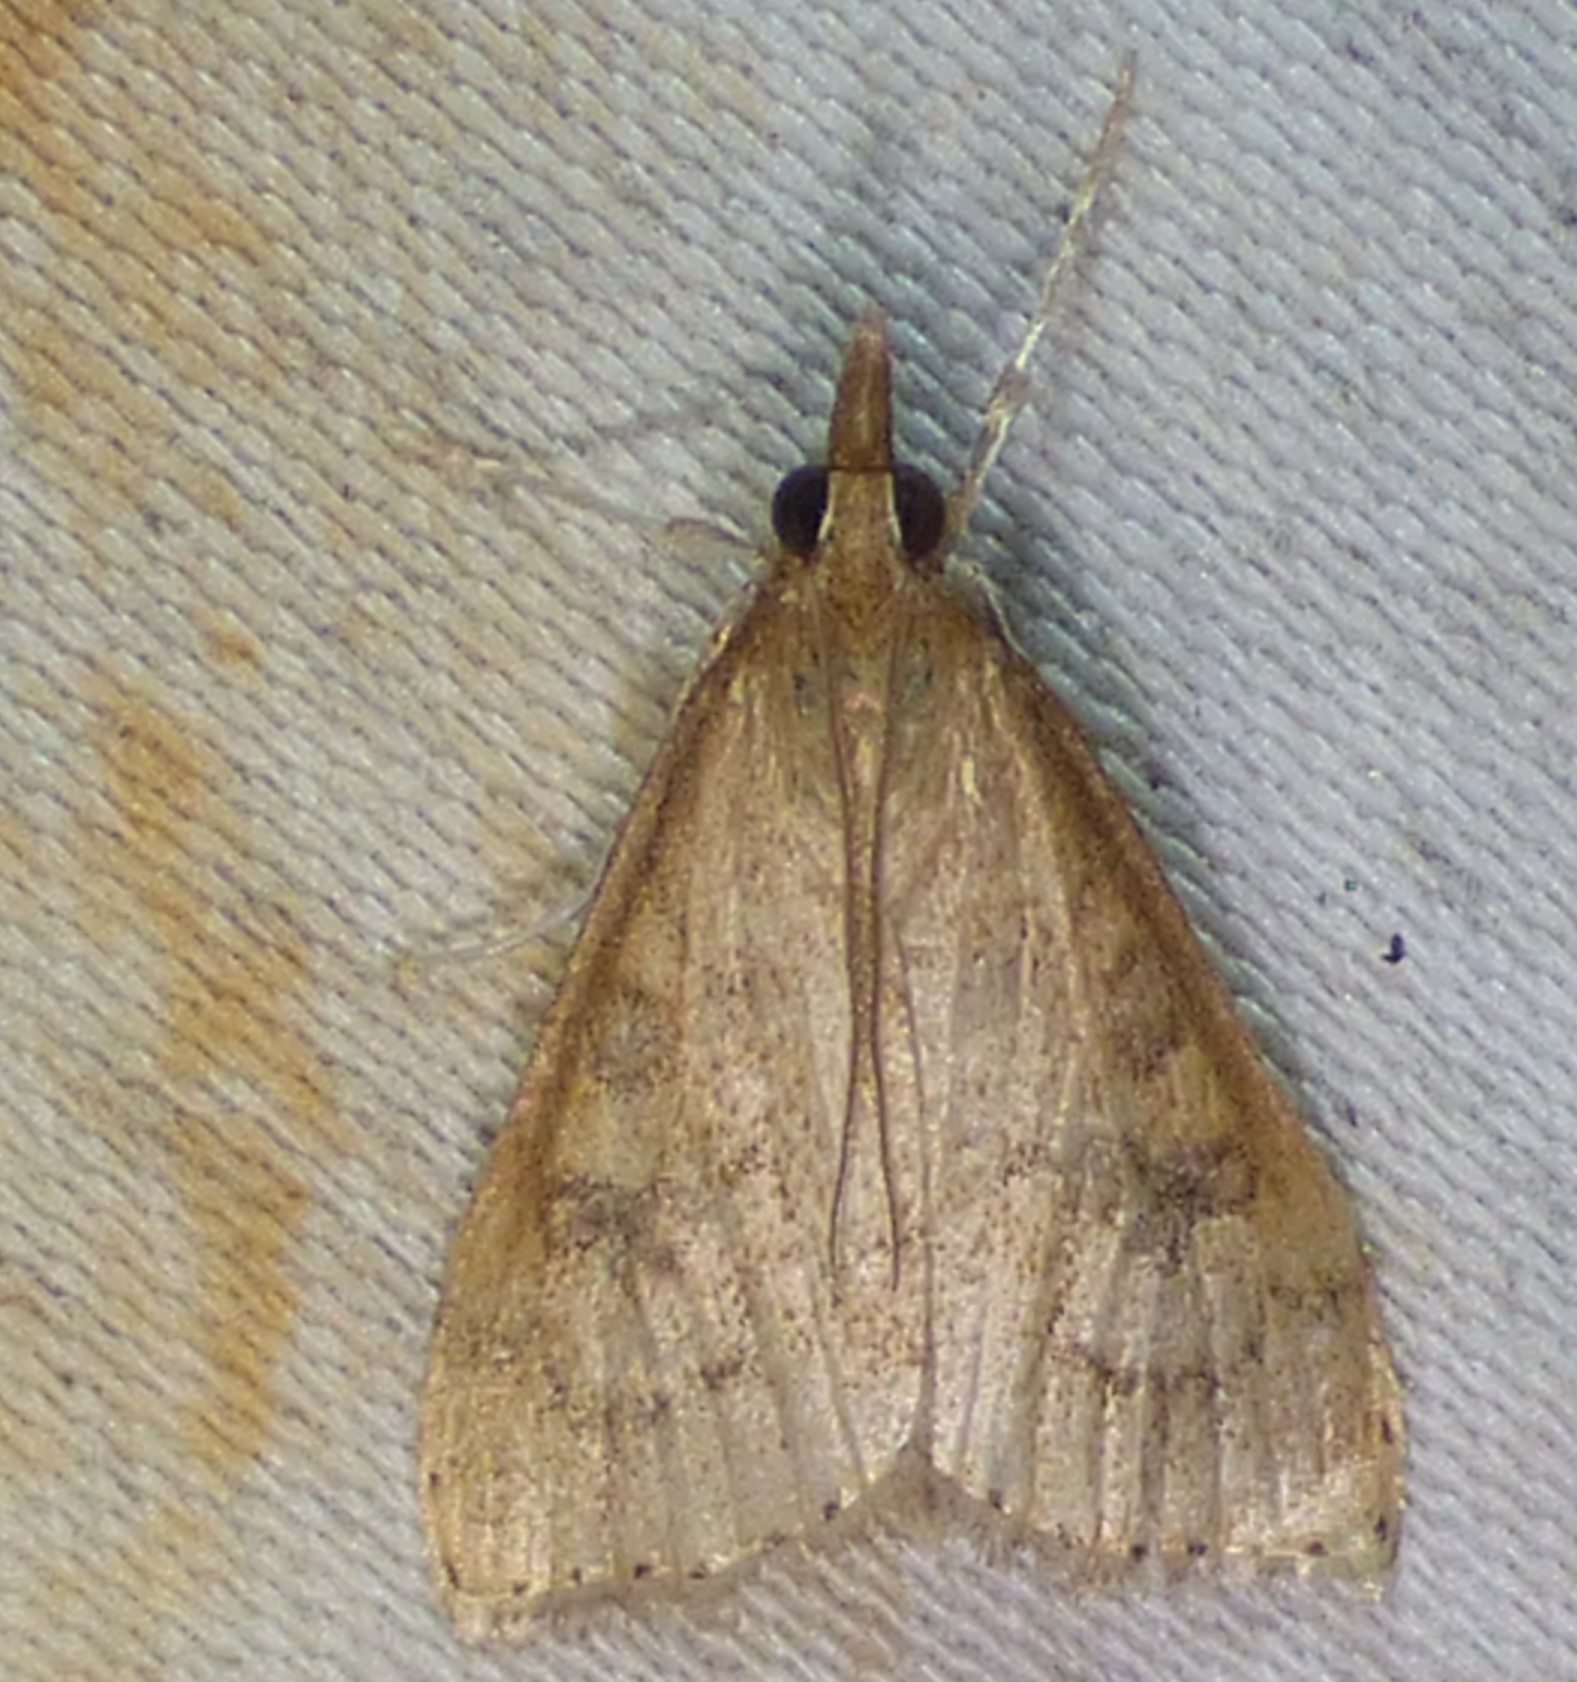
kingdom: Animalia
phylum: Arthropoda
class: Insecta
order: Lepidoptera
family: Crambidae
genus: Udea
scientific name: Udea rubigalis
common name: Celery leaftier moth
